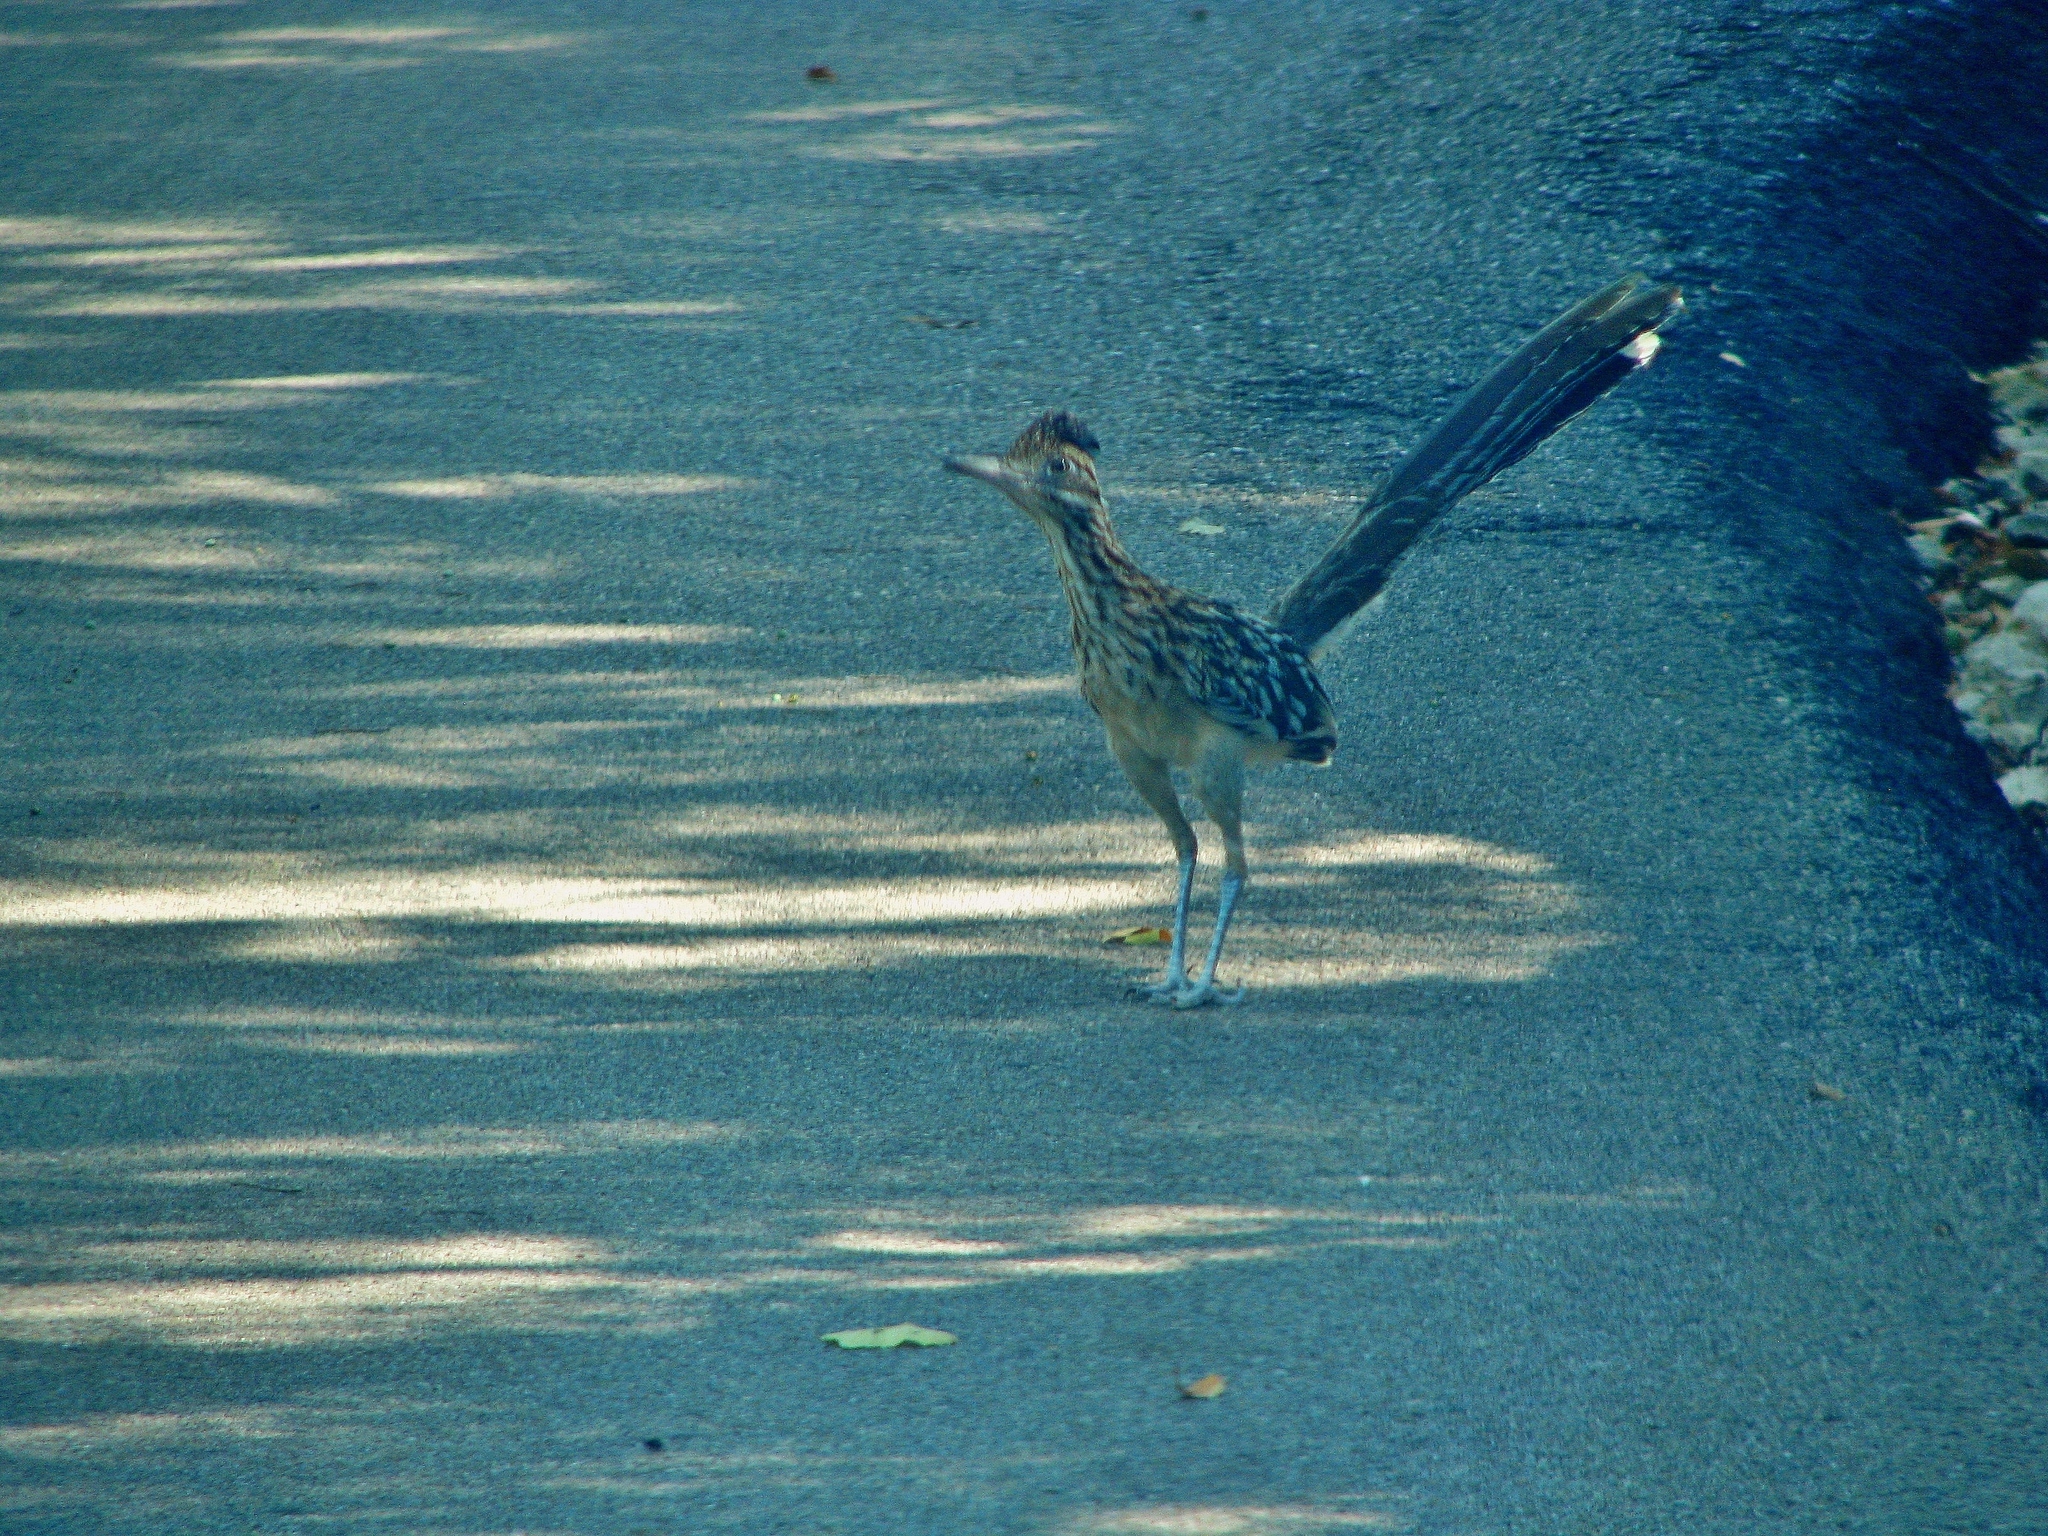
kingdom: Animalia
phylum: Chordata
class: Aves
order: Cuculiformes
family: Cuculidae
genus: Geococcyx
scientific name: Geococcyx californianus
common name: Greater roadrunner
